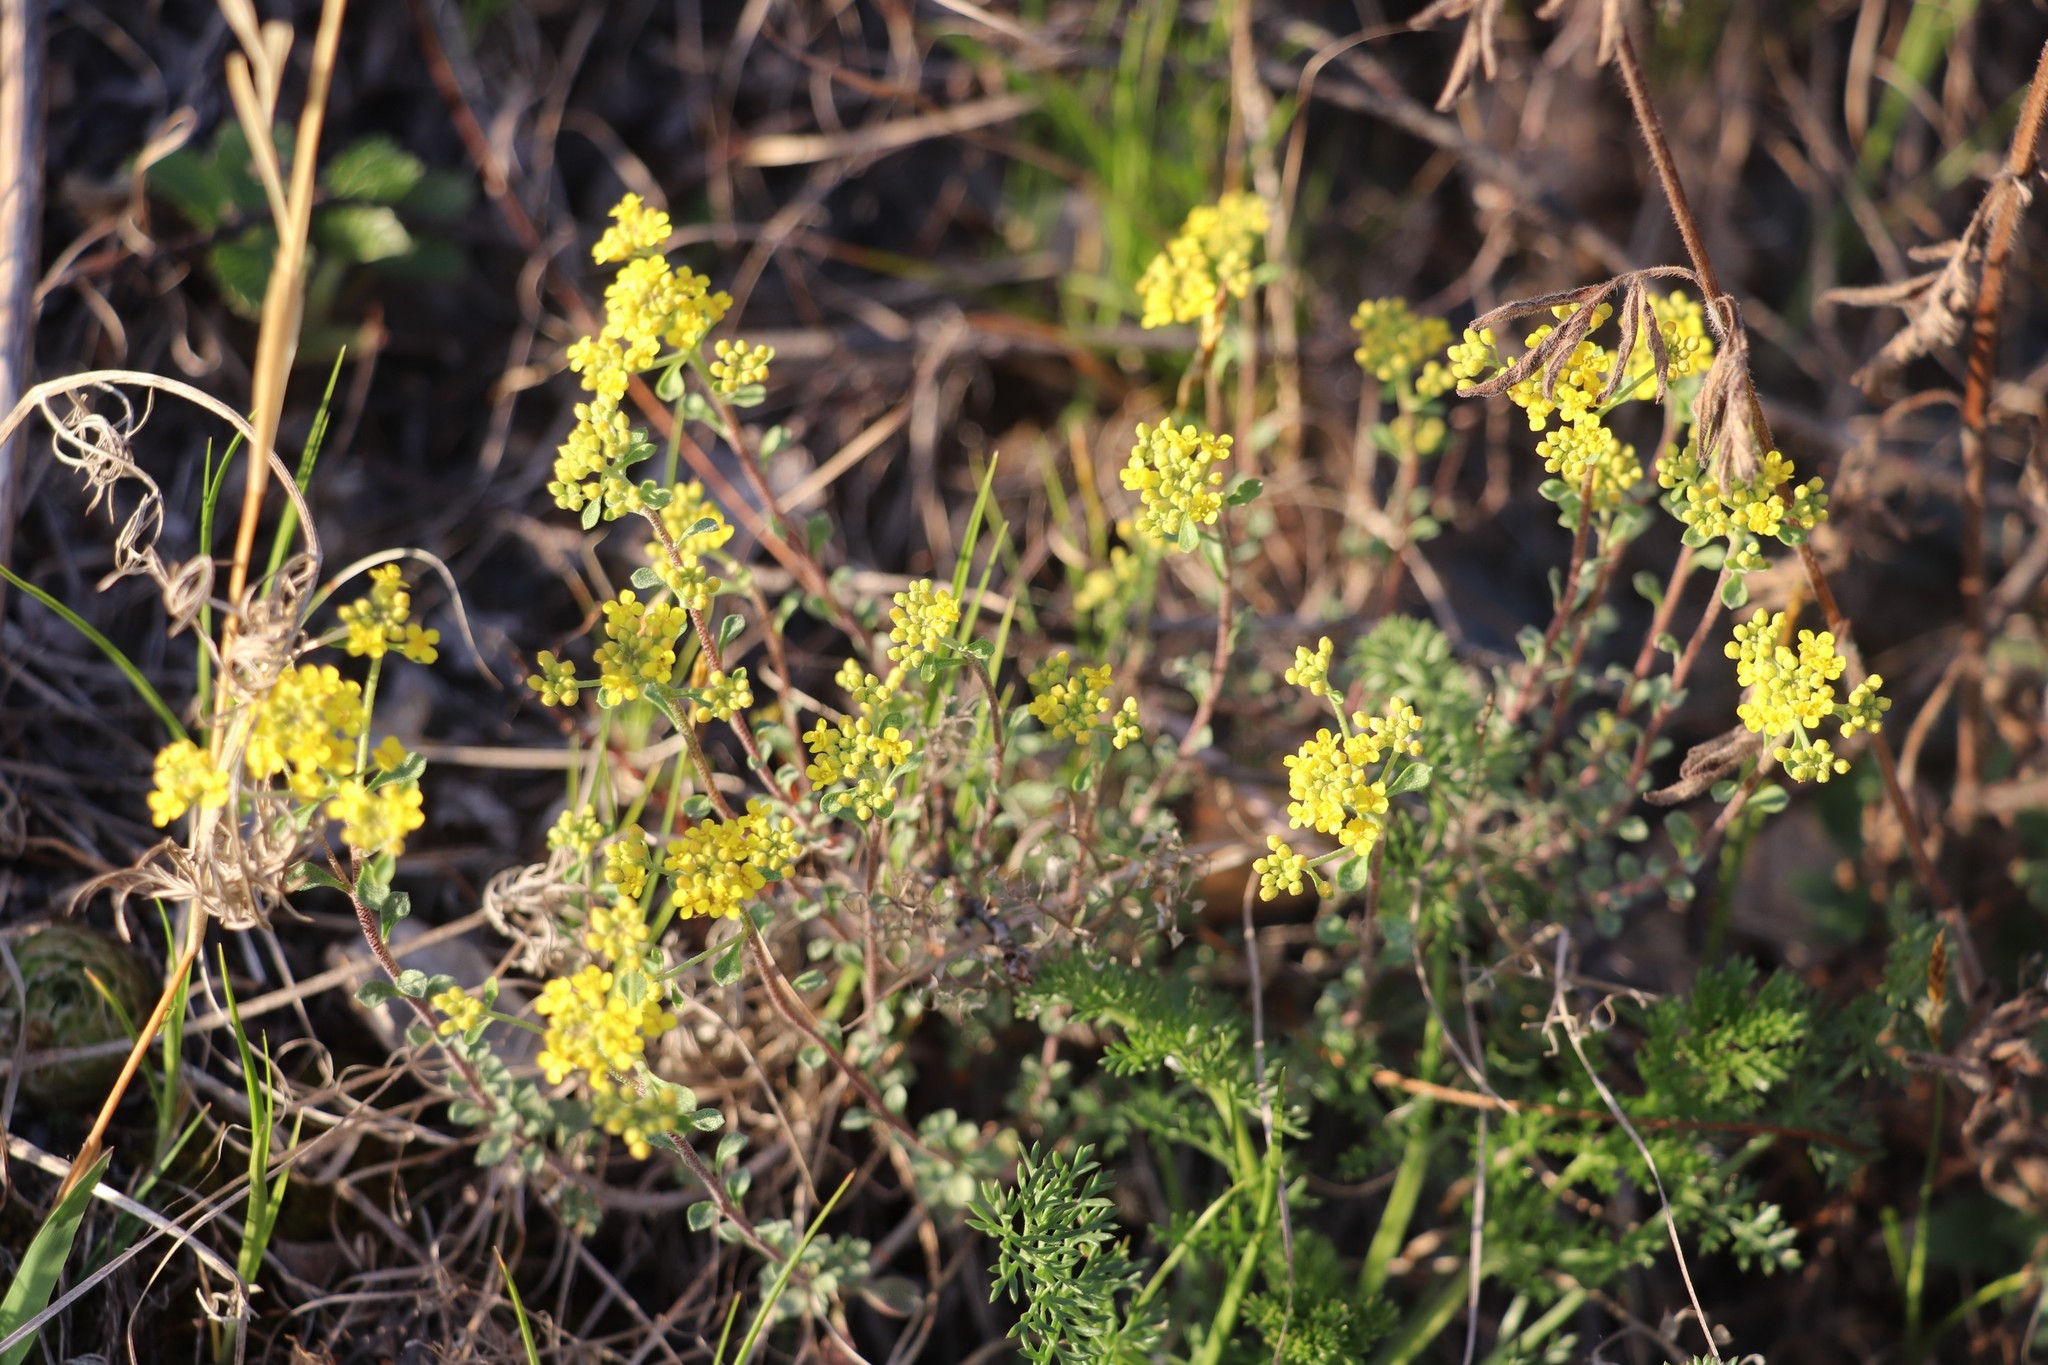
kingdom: Plantae
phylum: Tracheophyta
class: Magnoliopsida
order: Brassicales
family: Brassicaceae
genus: Odontarrhena
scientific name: Odontarrhena obovata
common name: American alyssum
